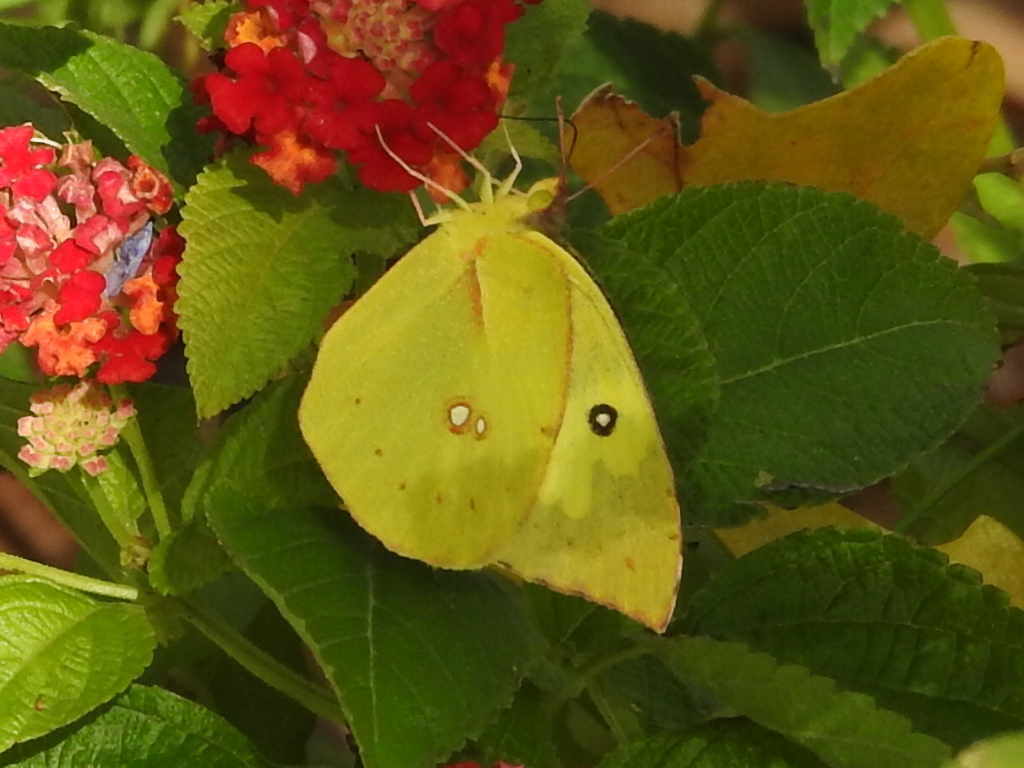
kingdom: Animalia
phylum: Arthropoda
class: Insecta
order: Lepidoptera
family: Pieridae
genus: Zerene
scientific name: Zerene cesonia
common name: Southern dogface
